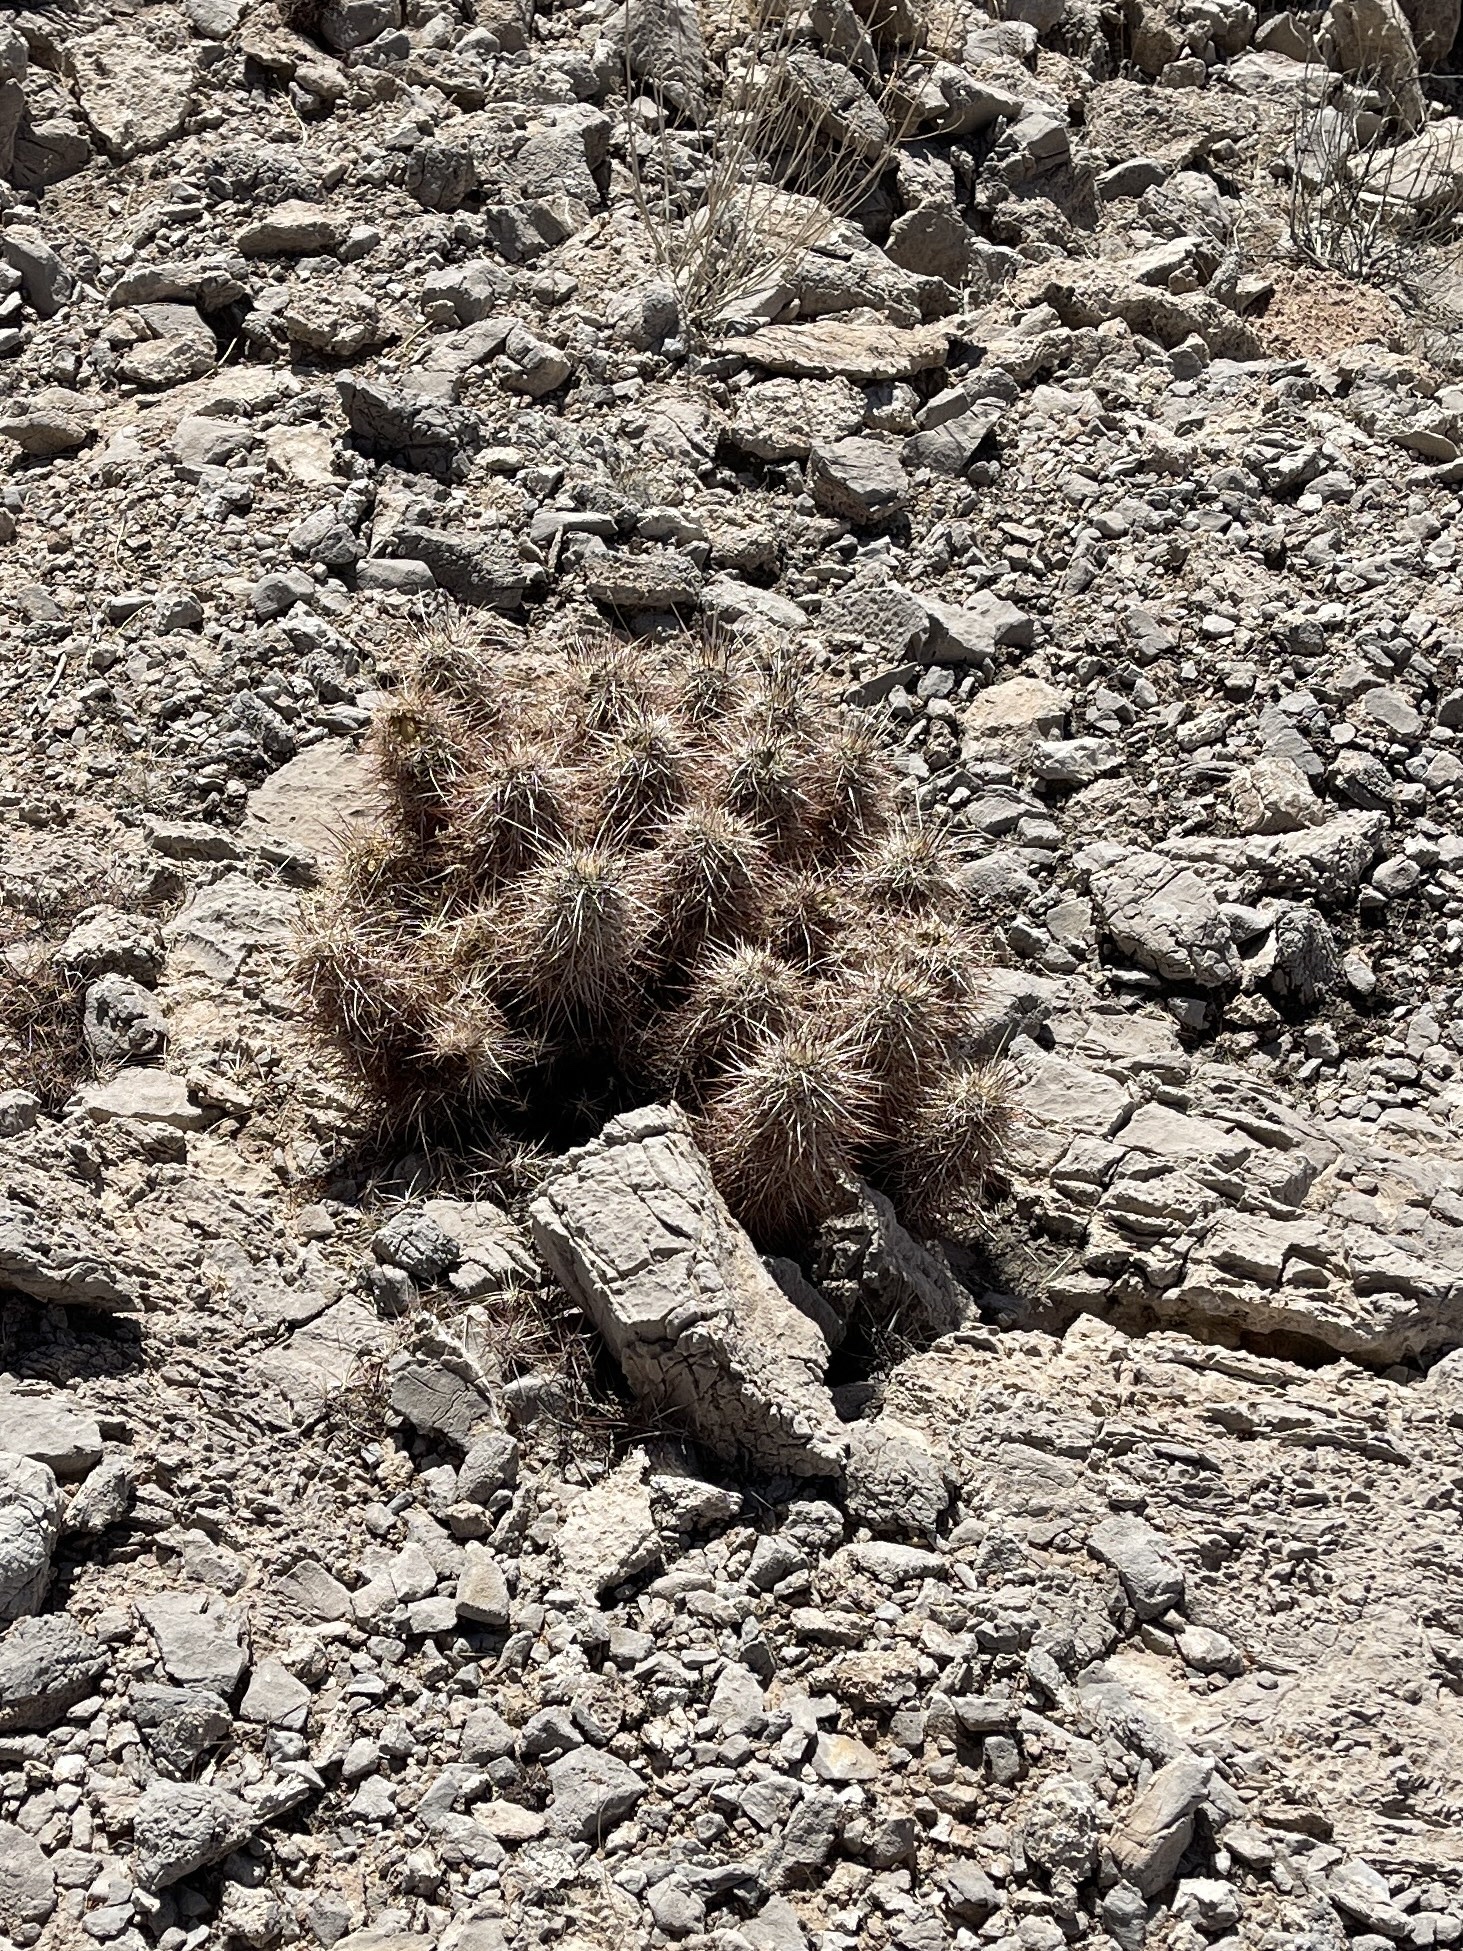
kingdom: Plantae
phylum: Tracheophyta
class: Magnoliopsida
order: Caryophyllales
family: Cactaceae
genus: Echinocereus
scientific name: Echinocereus engelmannii
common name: Engelmann's hedgehog cactus
